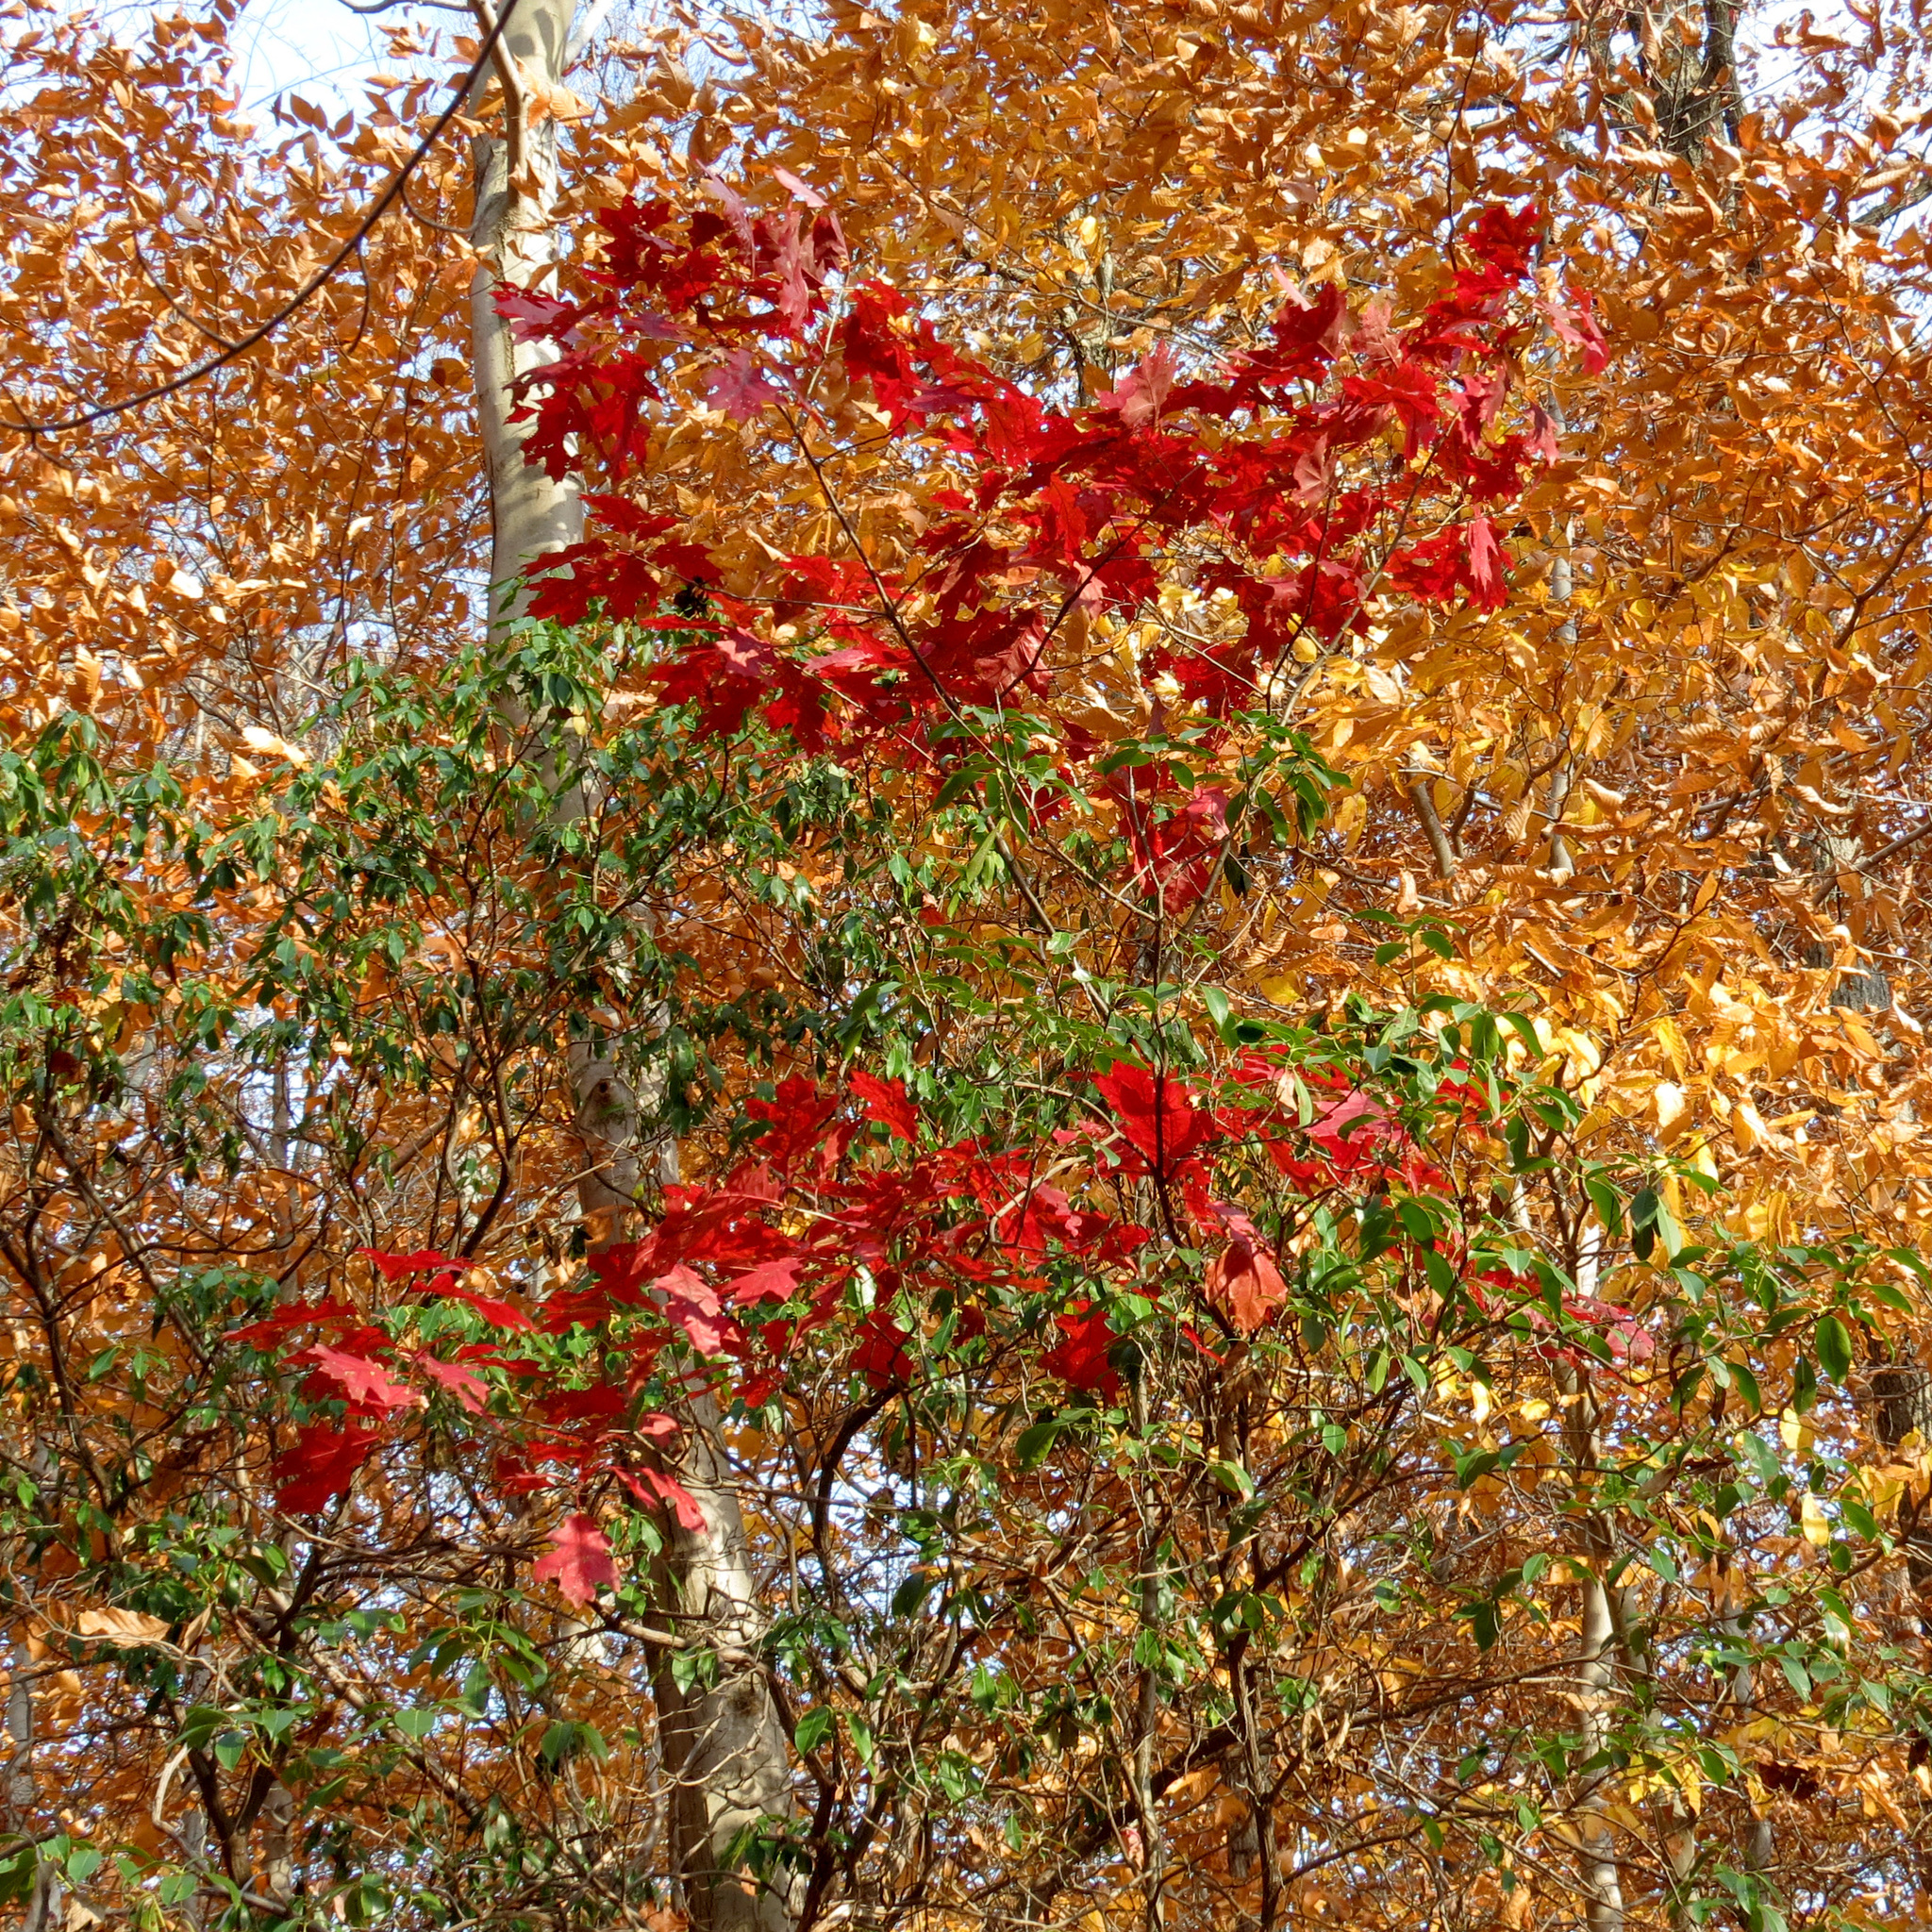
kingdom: Plantae
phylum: Tracheophyta
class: Magnoliopsida
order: Fagales
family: Fagaceae
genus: Quercus
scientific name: Quercus rubra
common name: Red oak
